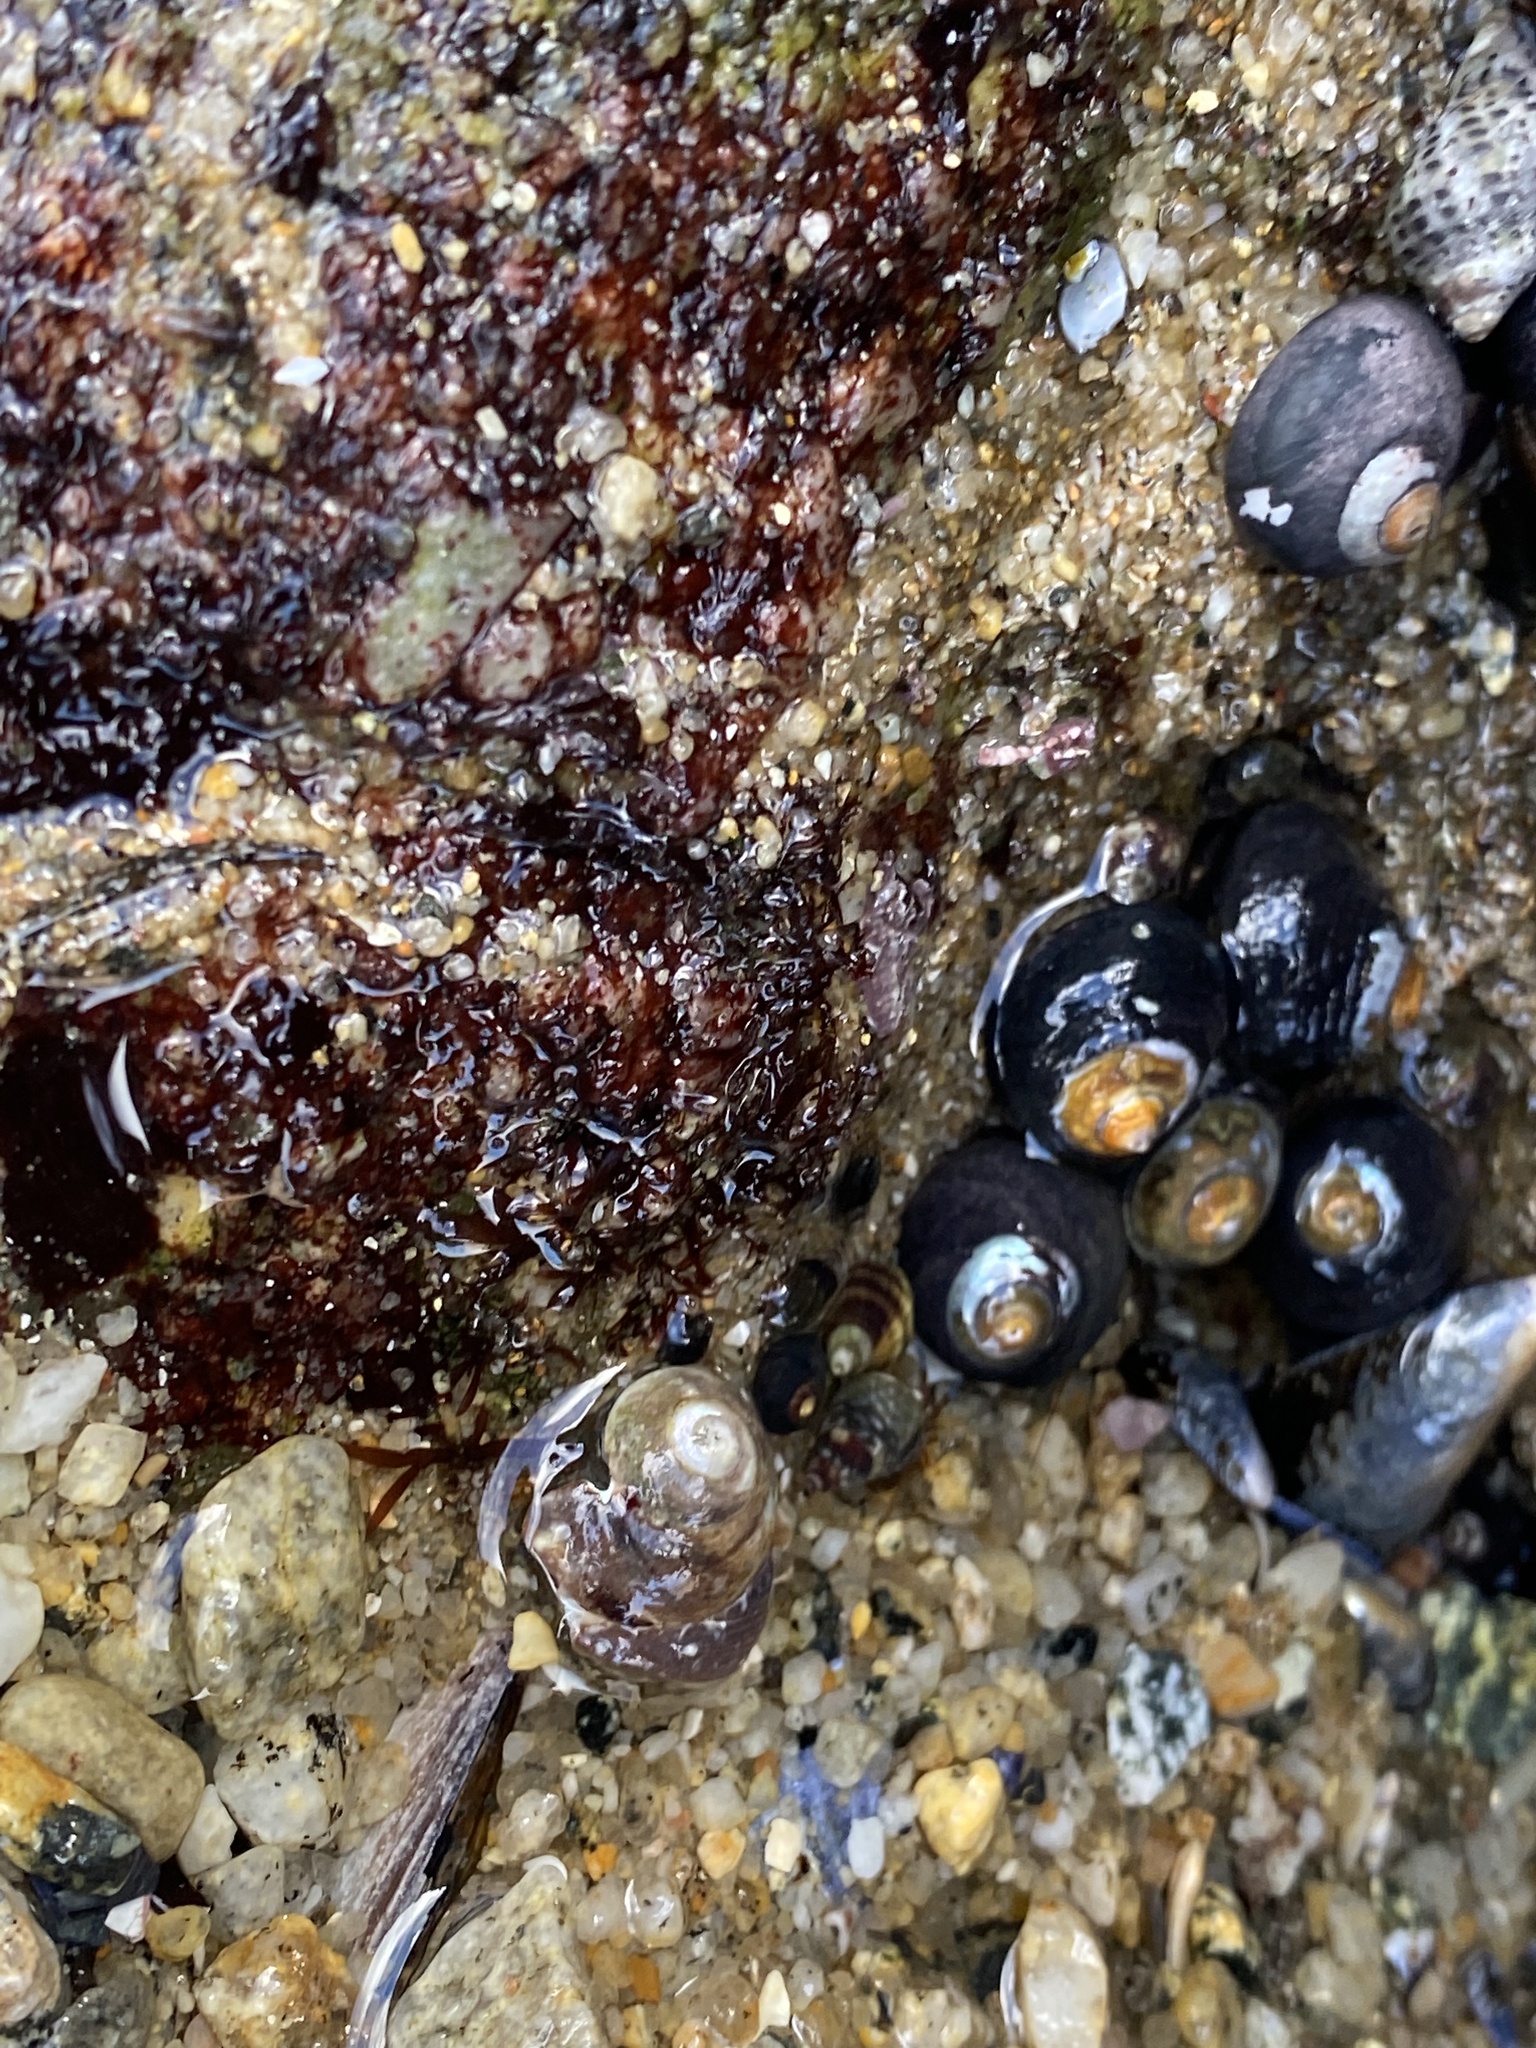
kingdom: Animalia
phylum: Mollusca
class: Gastropoda
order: Trochida
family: Tegulidae
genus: Tegula
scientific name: Tegula funebralis
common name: Black tegula
